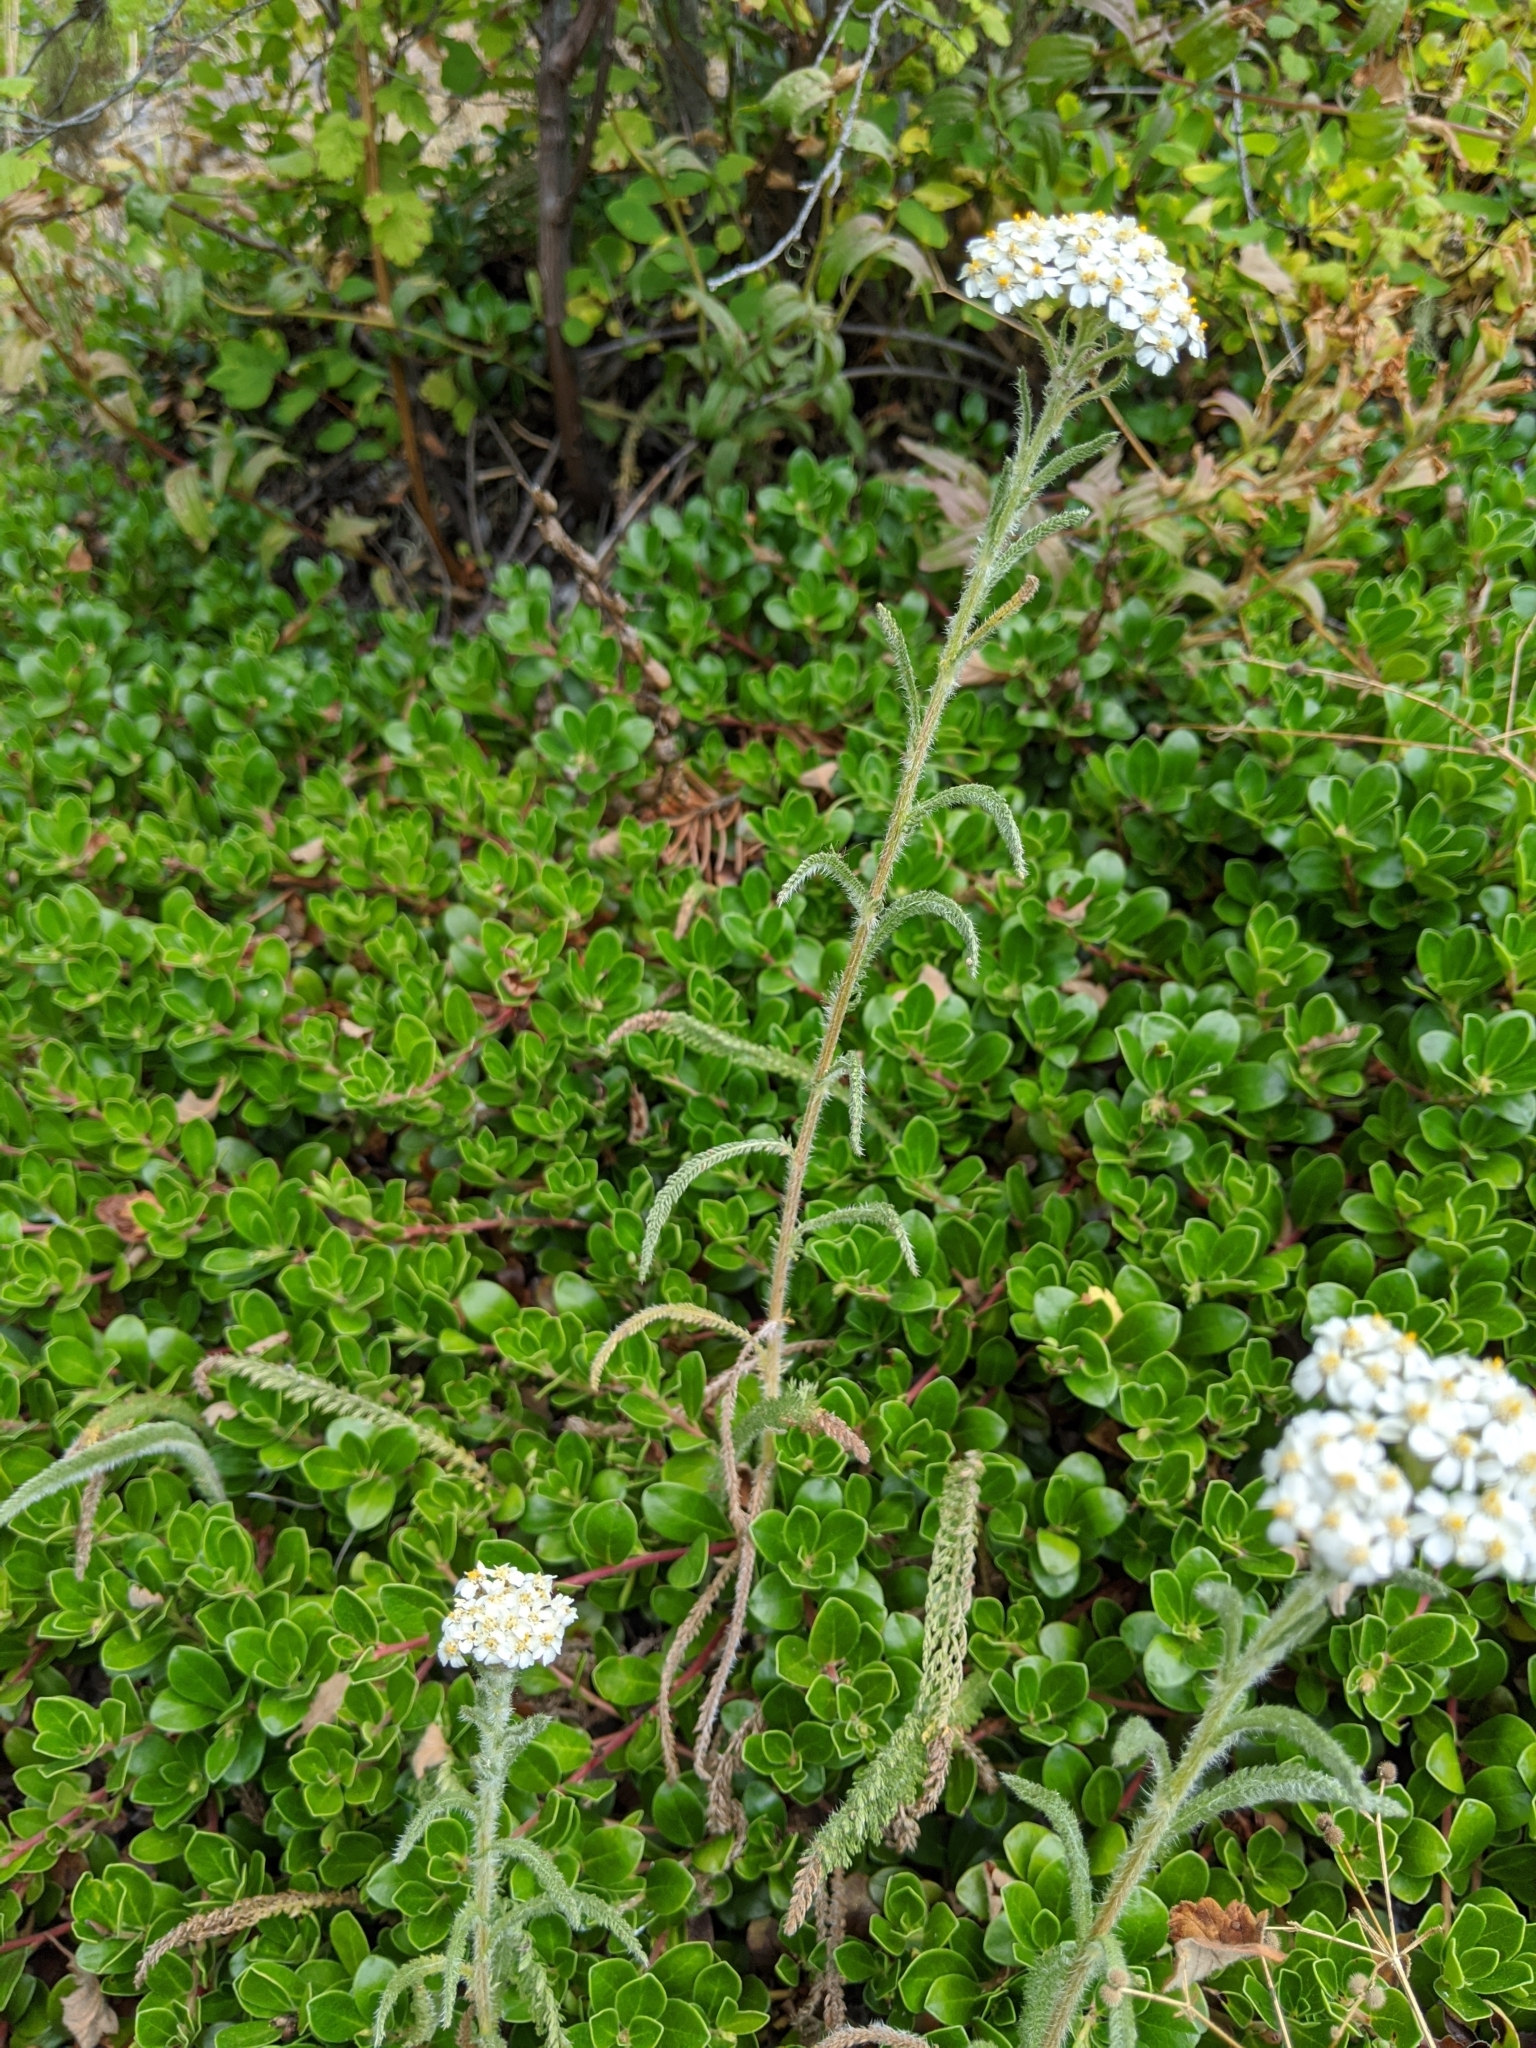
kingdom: Plantae
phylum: Tracheophyta
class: Magnoliopsida
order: Asterales
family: Asteraceae
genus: Achillea
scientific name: Achillea millefolium
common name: Yarrow
